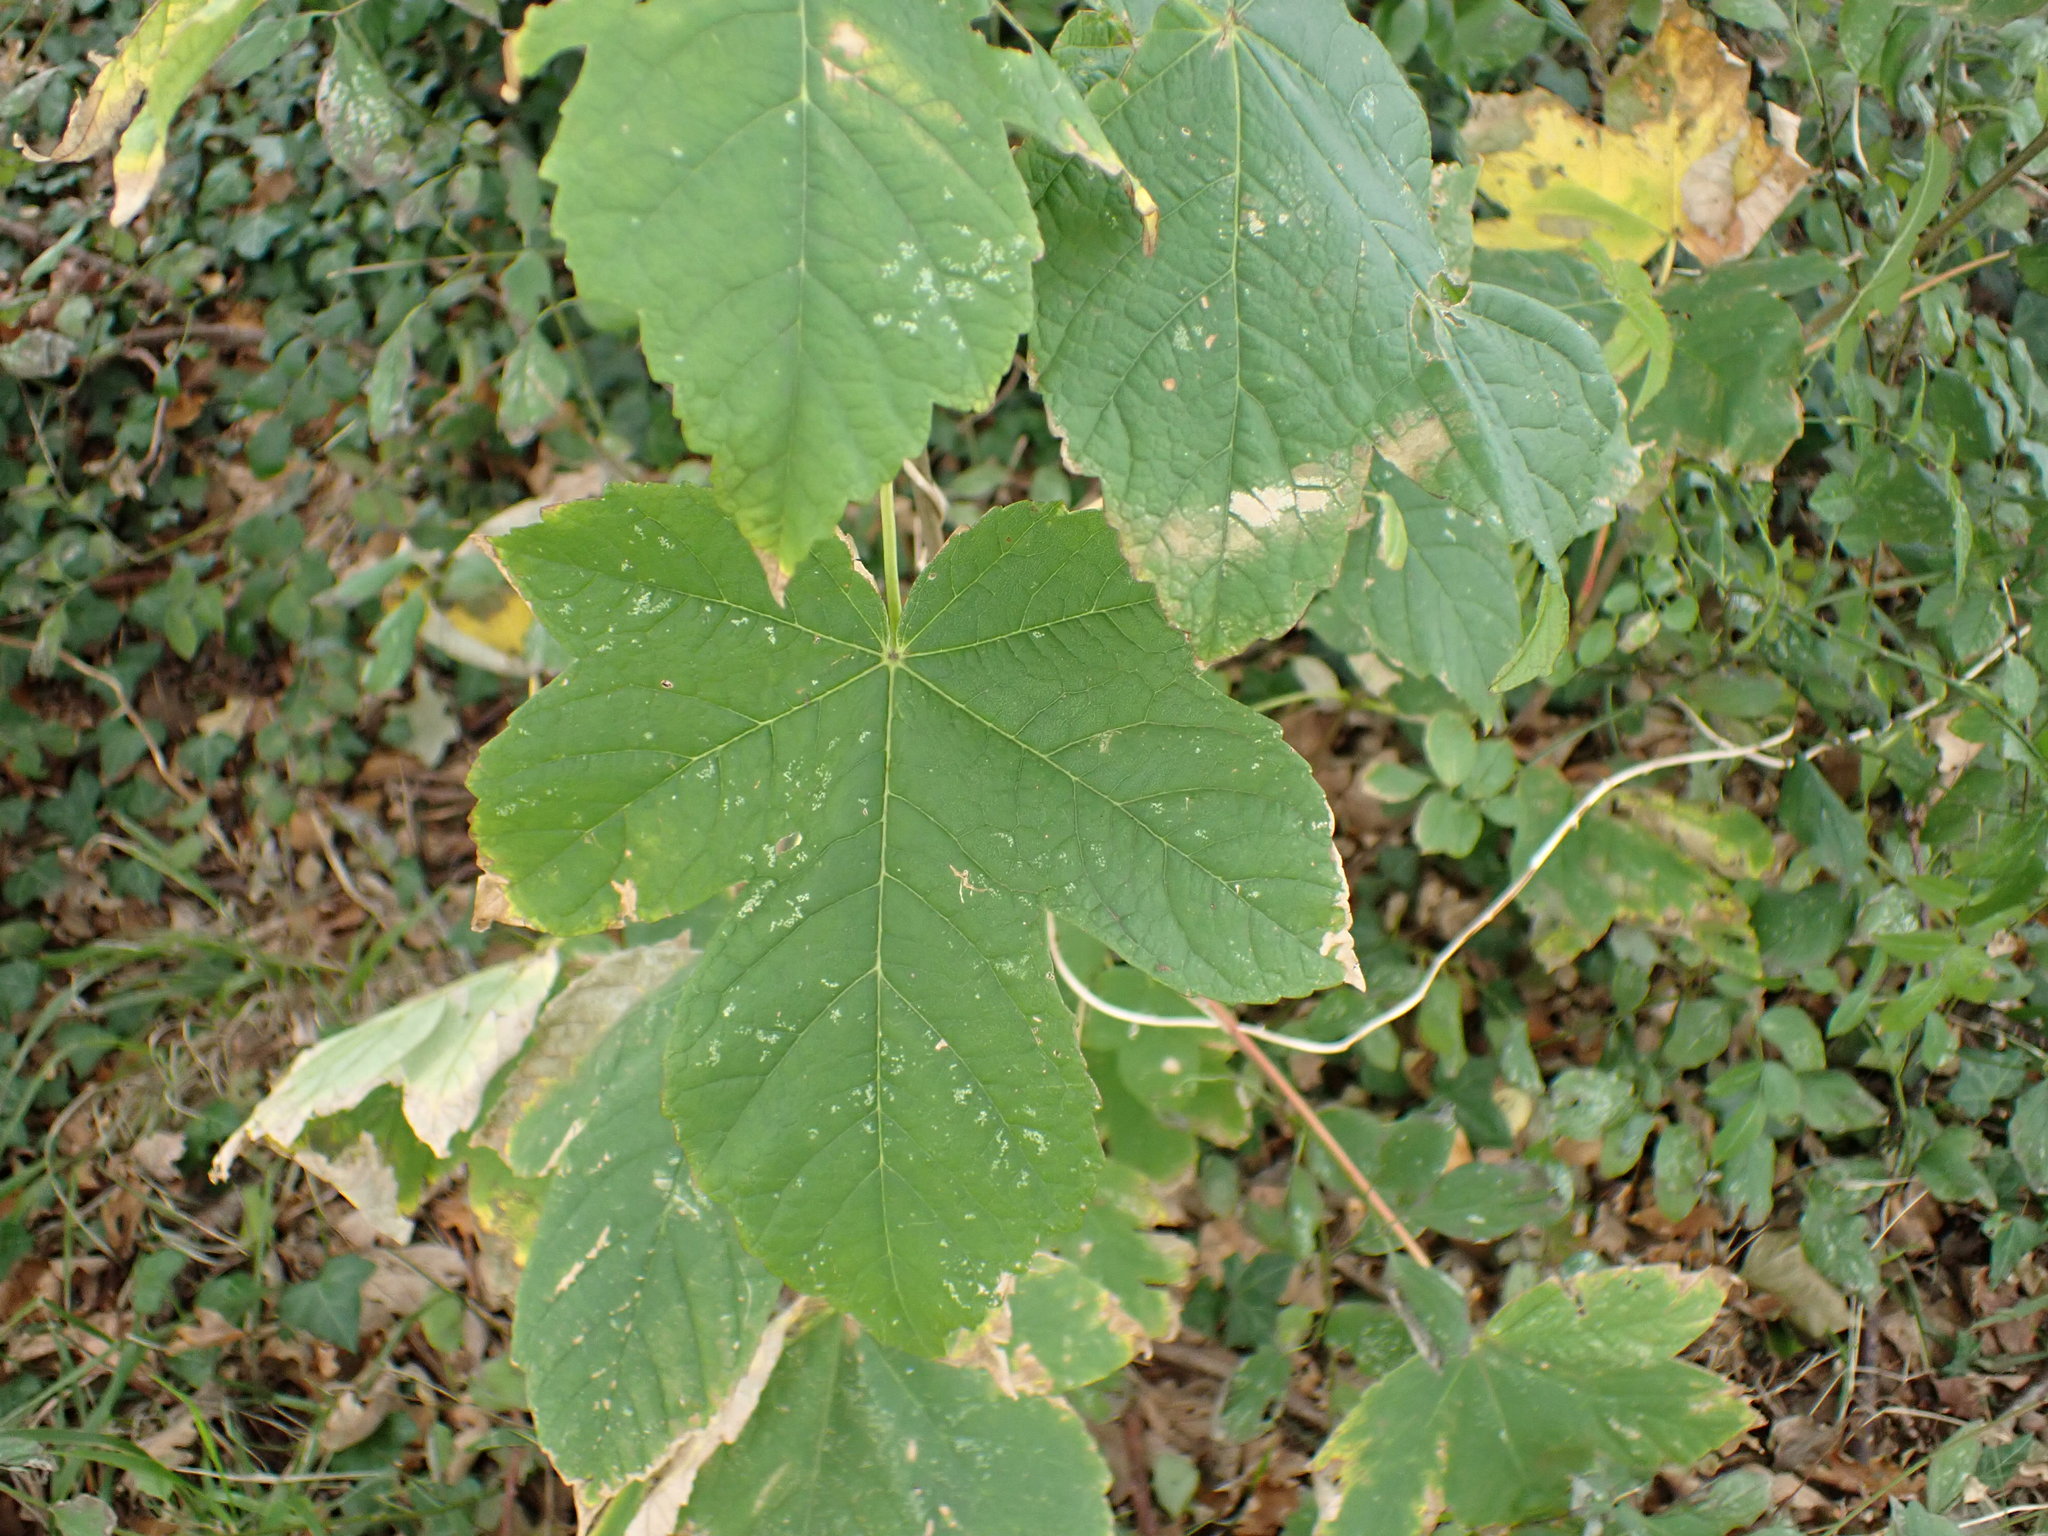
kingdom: Plantae
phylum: Tracheophyta
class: Magnoliopsida
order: Sapindales
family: Sapindaceae
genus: Acer
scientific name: Acer pseudoplatanus
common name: Sycamore
